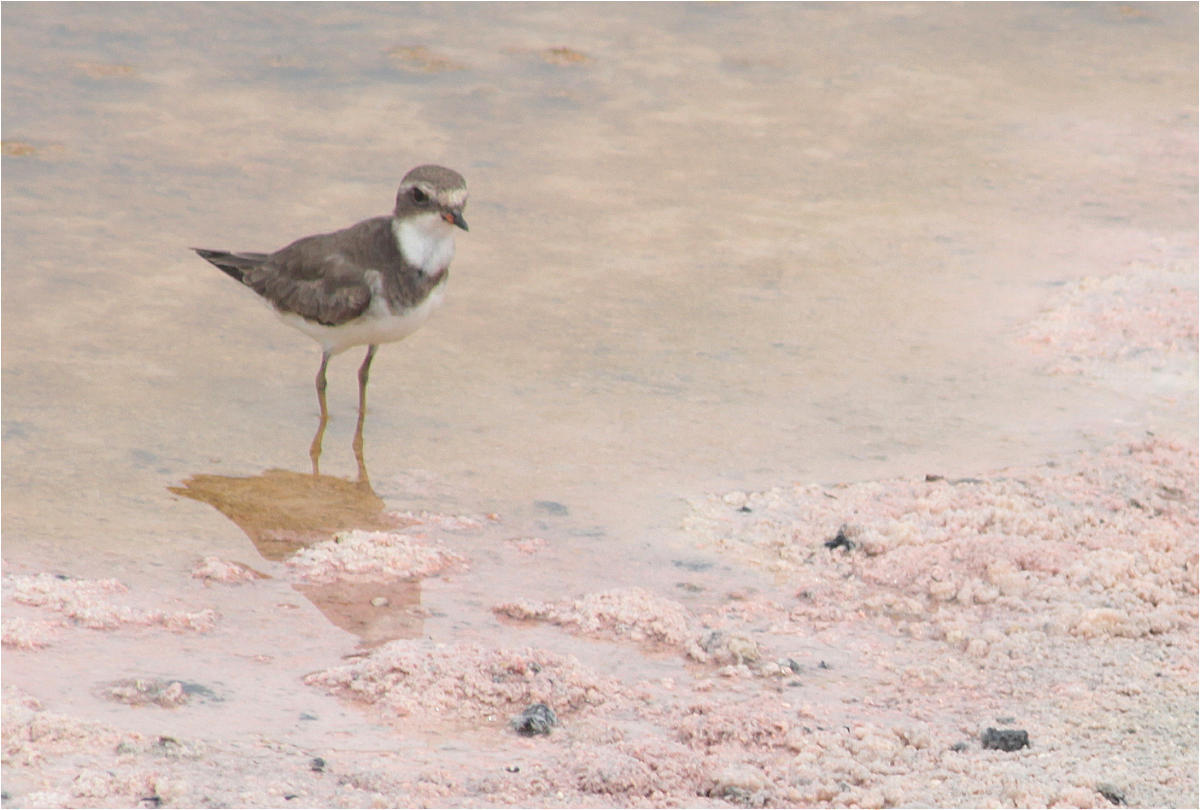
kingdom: Animalia
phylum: Chordata
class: Aves
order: Charadriiformes
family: Charadriidae
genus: Charadrius
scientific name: Charadrius semipalmatus
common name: Semipalmated plover
